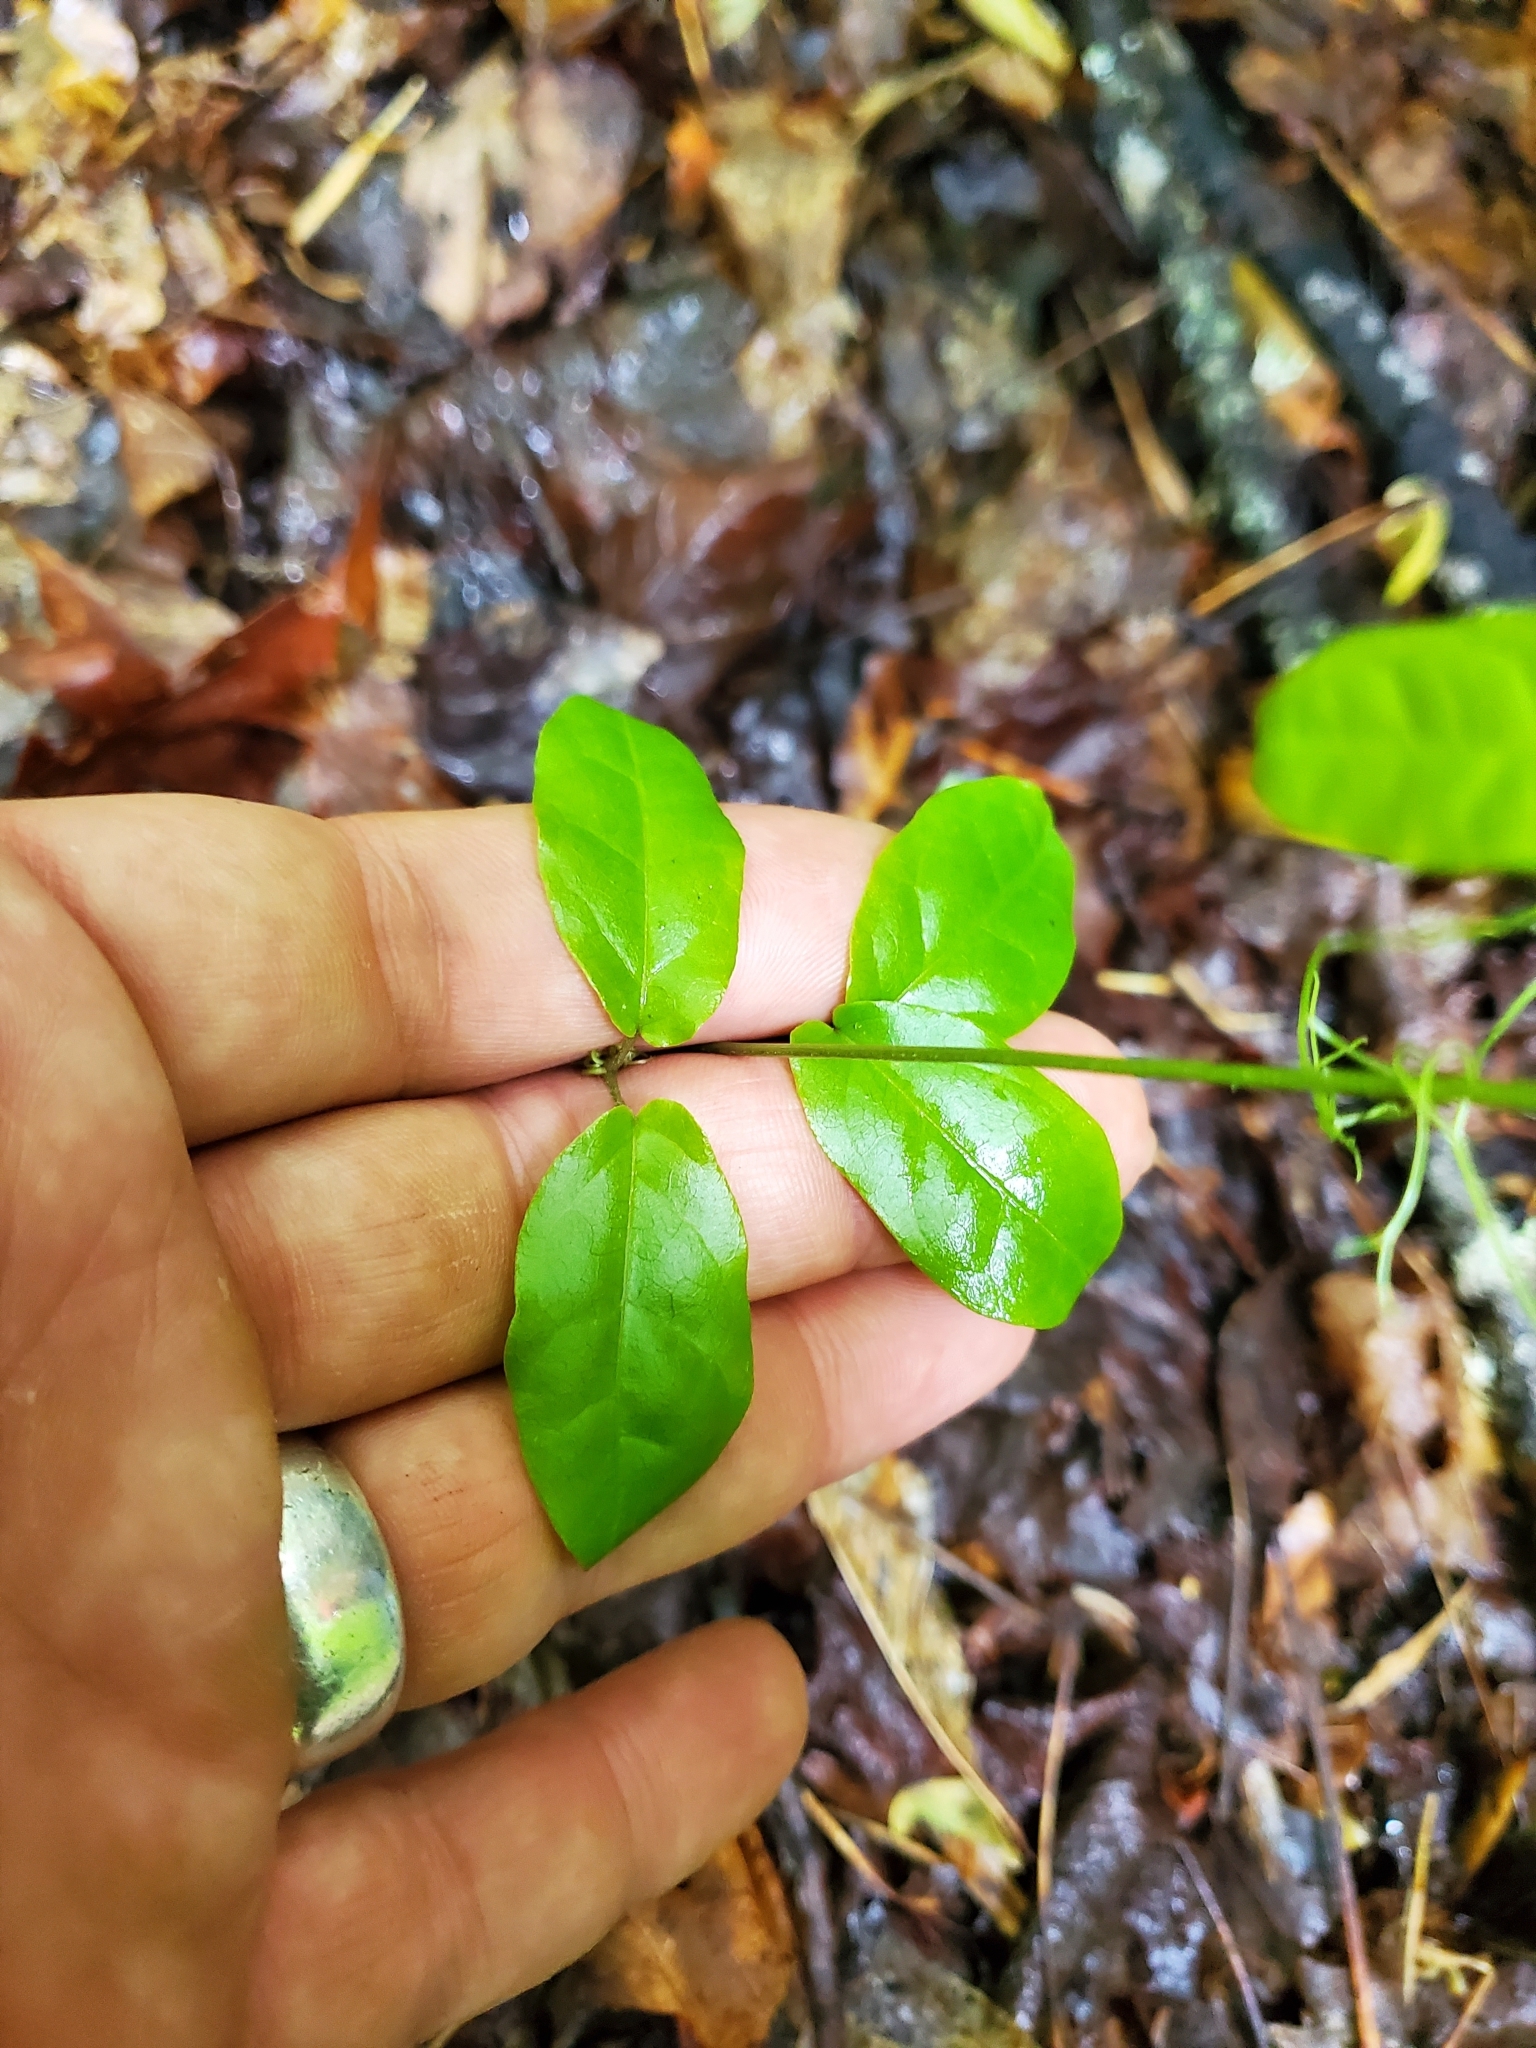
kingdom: Plantae
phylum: Tracheophyta
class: Magnoliopsida
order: Lamiales
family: Bignoniaceae
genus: Bignonia
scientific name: Bignonia capreolata
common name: Crossvine
